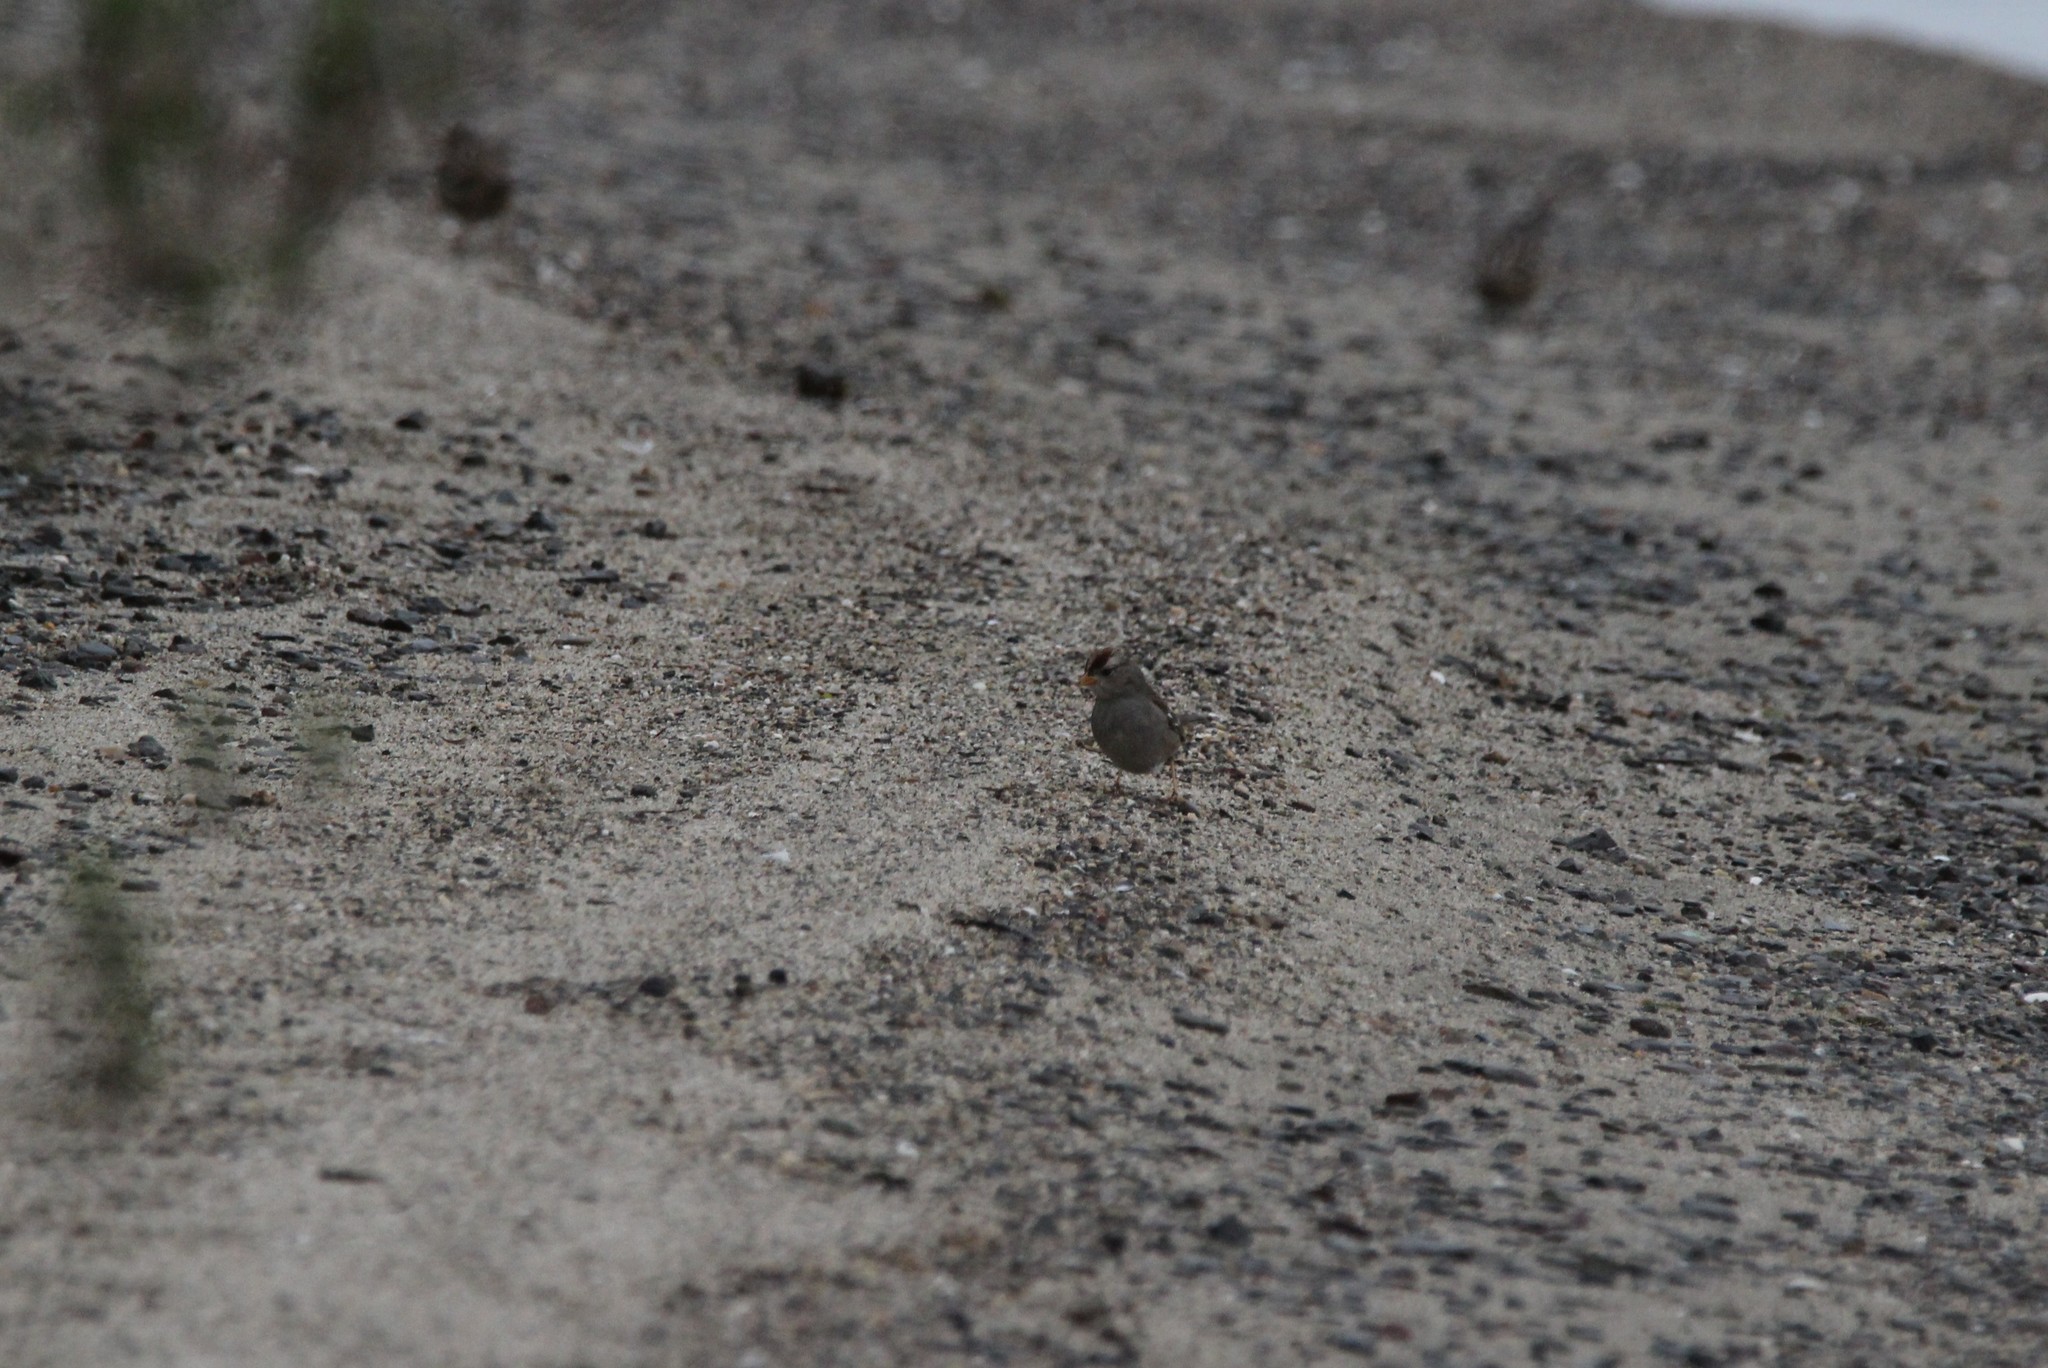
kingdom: Animalia
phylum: Chordata
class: Aves
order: Passeriformes
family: Passerellidae
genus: Zonotrichia
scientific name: Zonotrichia leucophrys
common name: White-crowned sparrow
